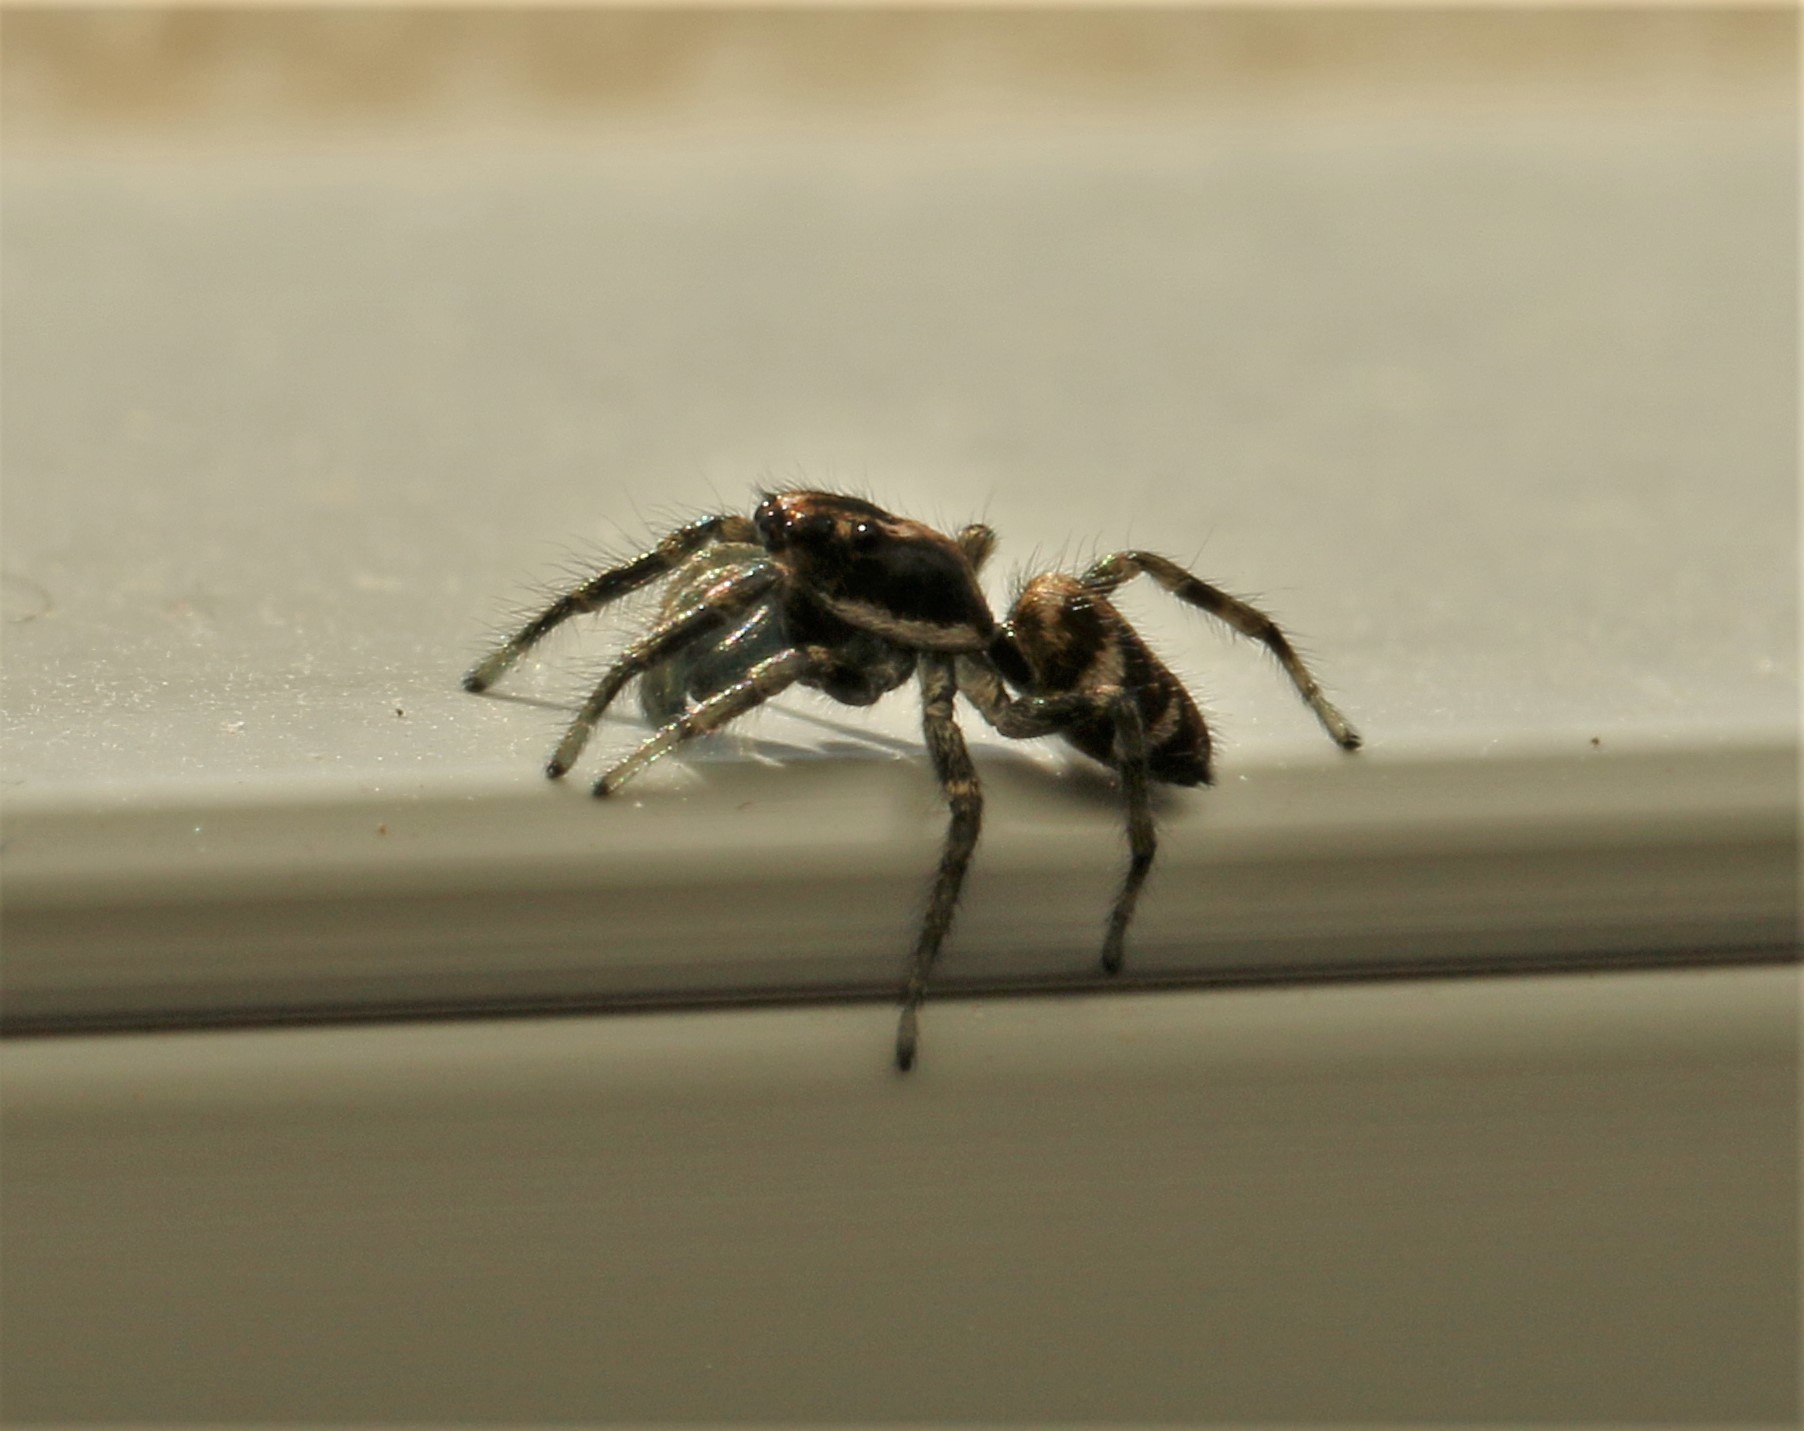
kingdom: Animalia
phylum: Arthropoda
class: Arachnida
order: Araneae
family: Salticidae
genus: Salticus
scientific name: Salticus scenicus
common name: Zebra jumper
